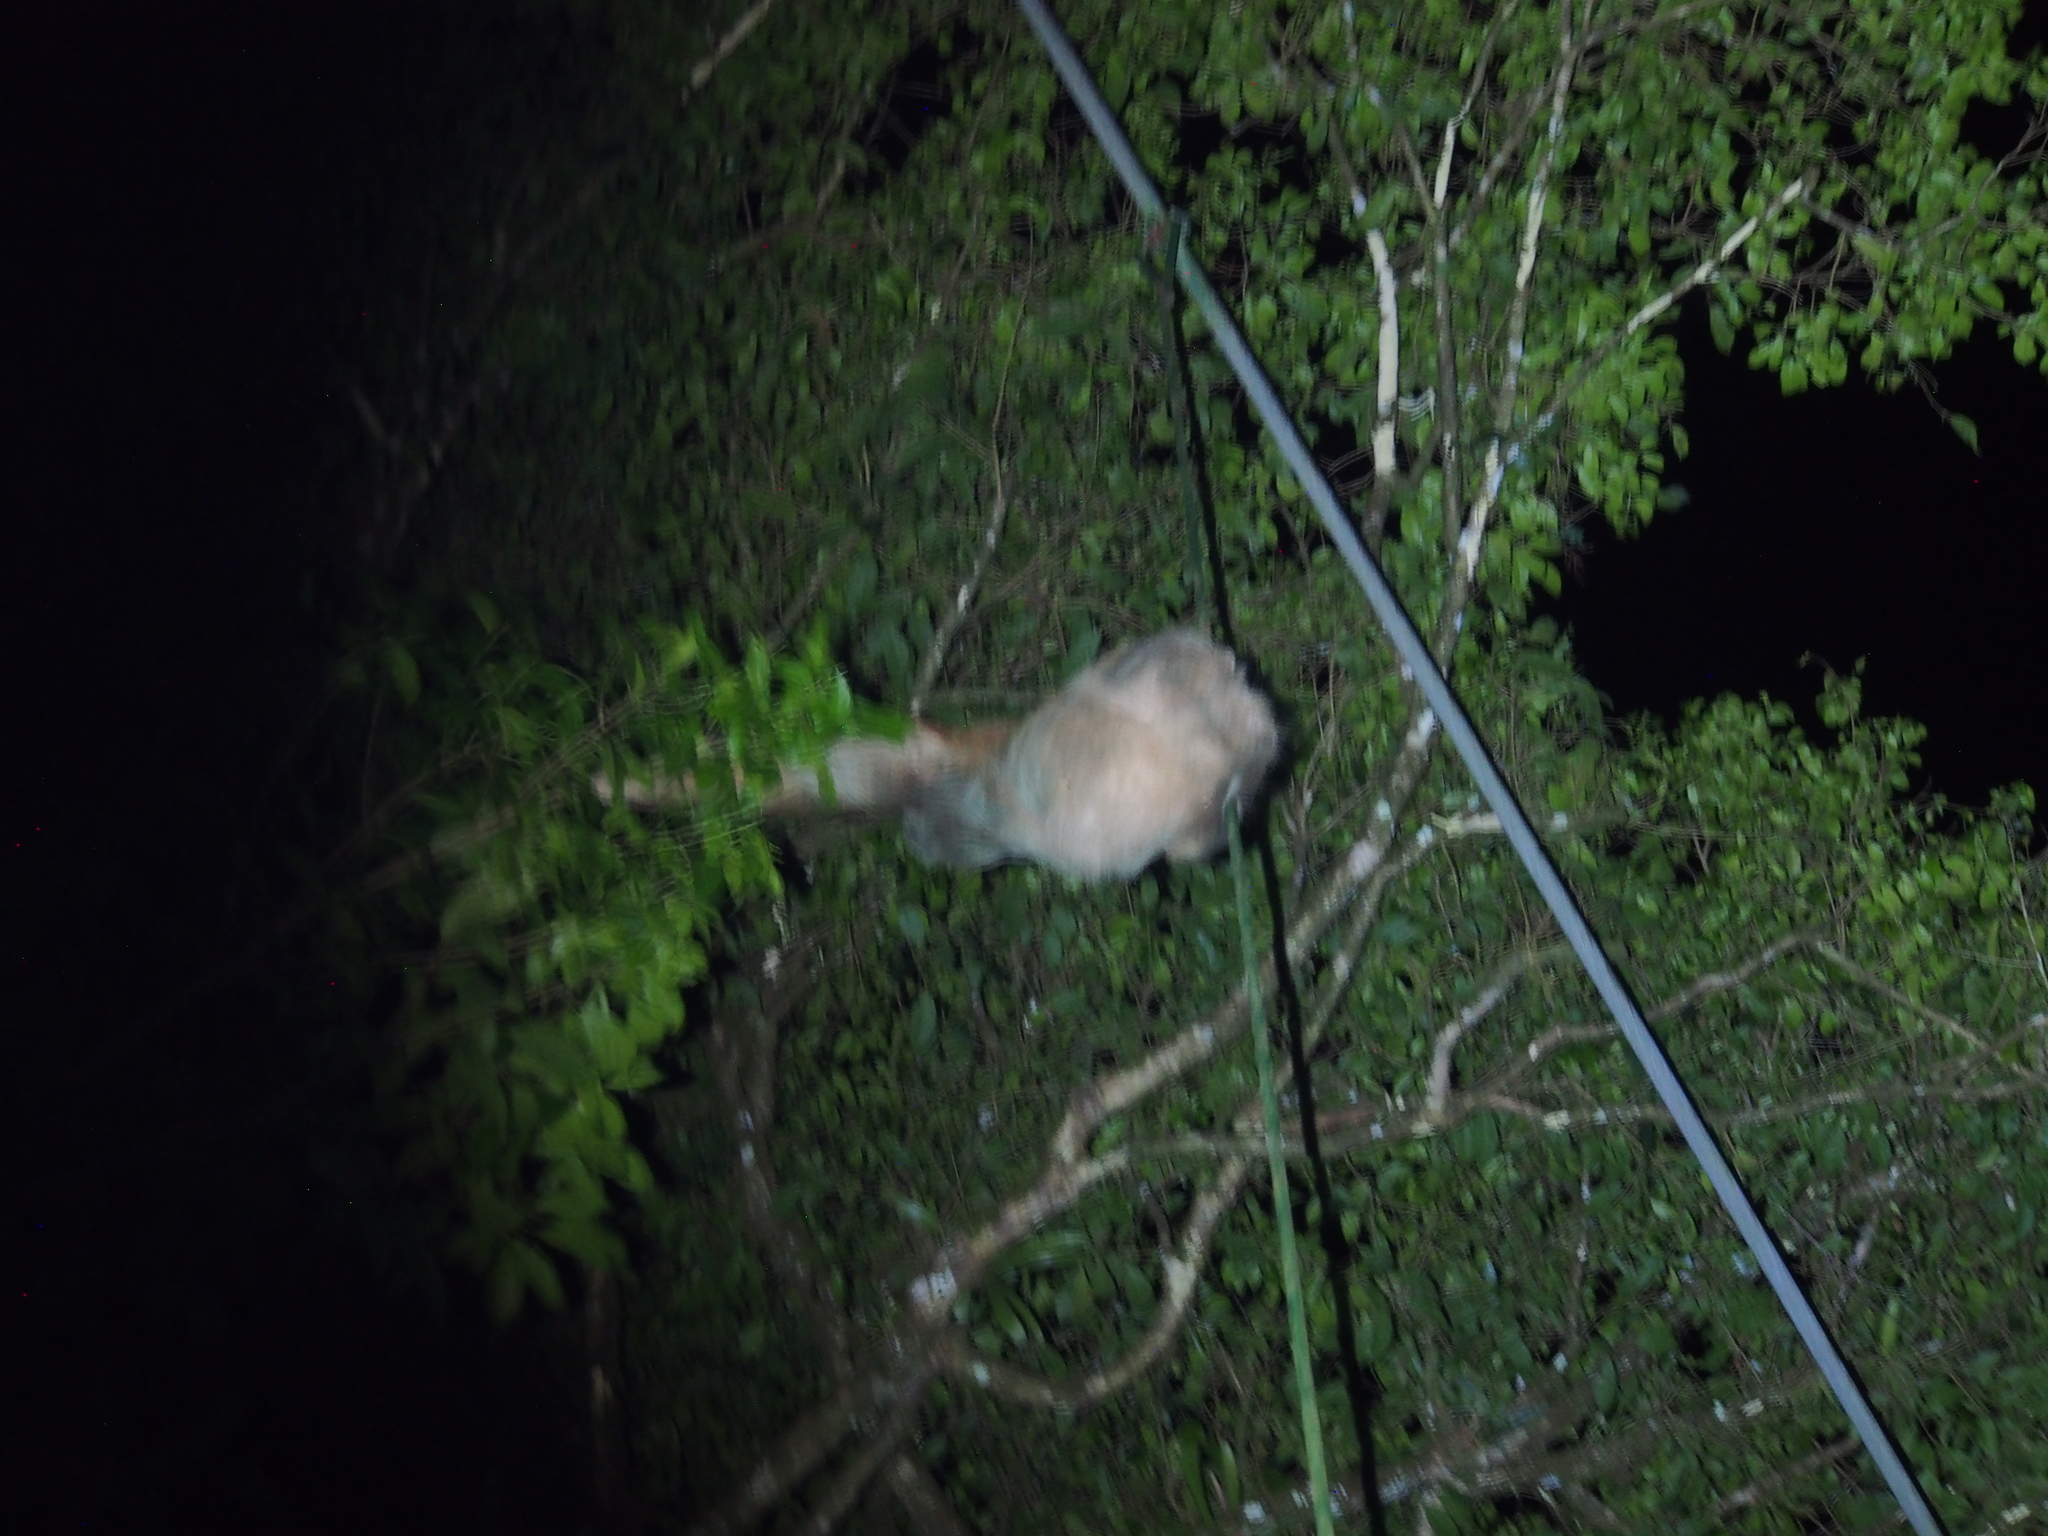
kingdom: Animalia
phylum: Chordata
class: Mammalia
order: Pilosa
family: Megalonychidae
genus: Choloepus
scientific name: Choloepus hoffmanni
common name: Hoffmann's two-toed sloth
